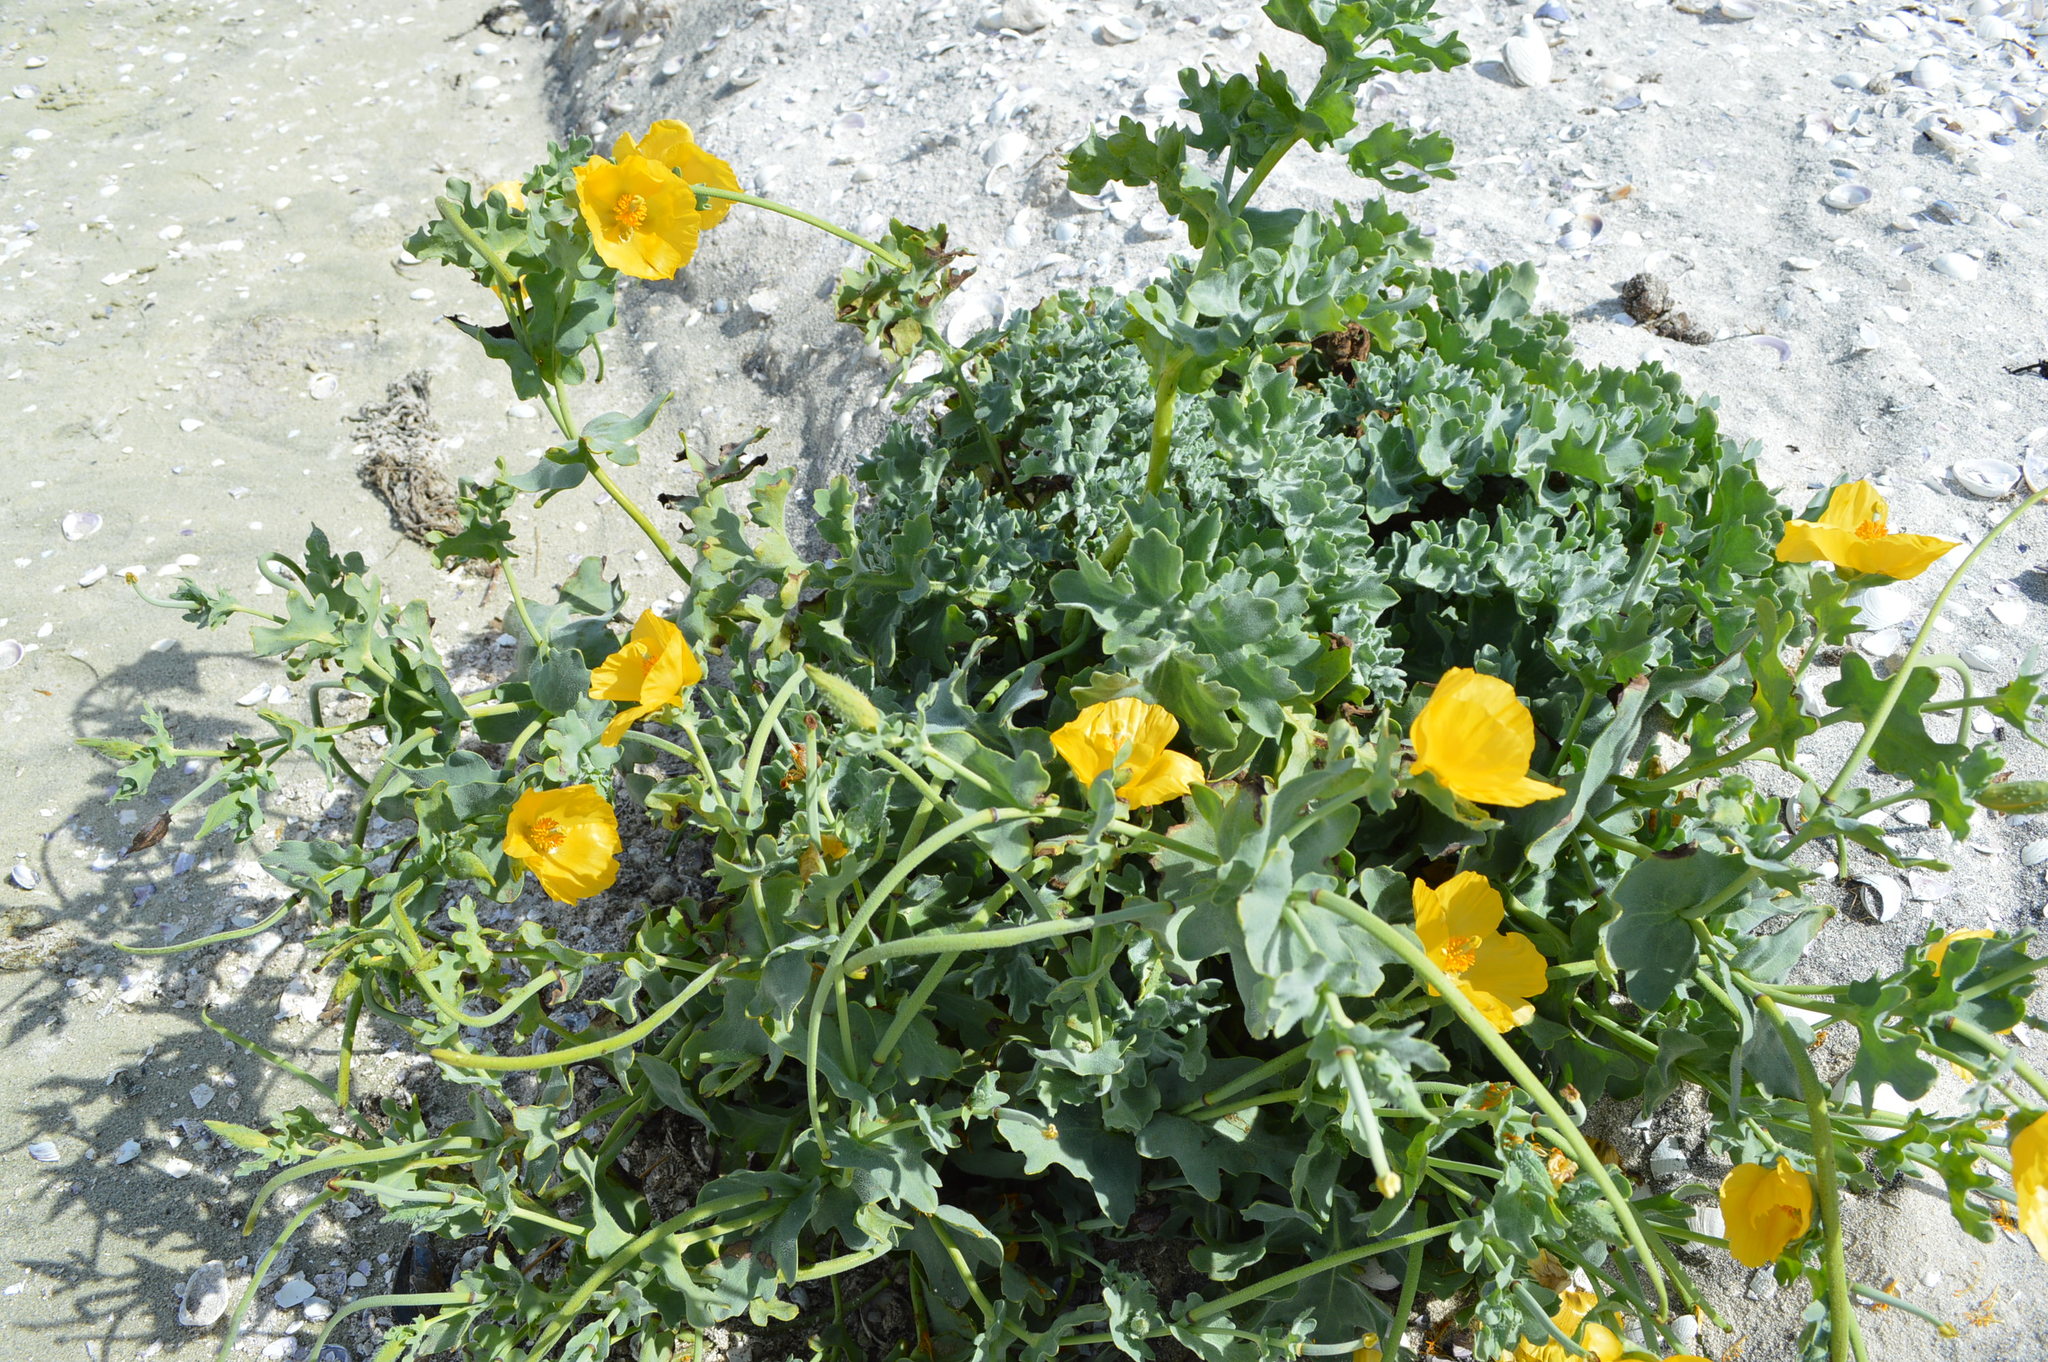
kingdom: Plantae
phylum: Tracheophyta
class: Magnoliopsida
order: Ranunculales
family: Papaveraceae
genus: Glaucium
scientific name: Glaucium flavum
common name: Yellow horned-poppy
